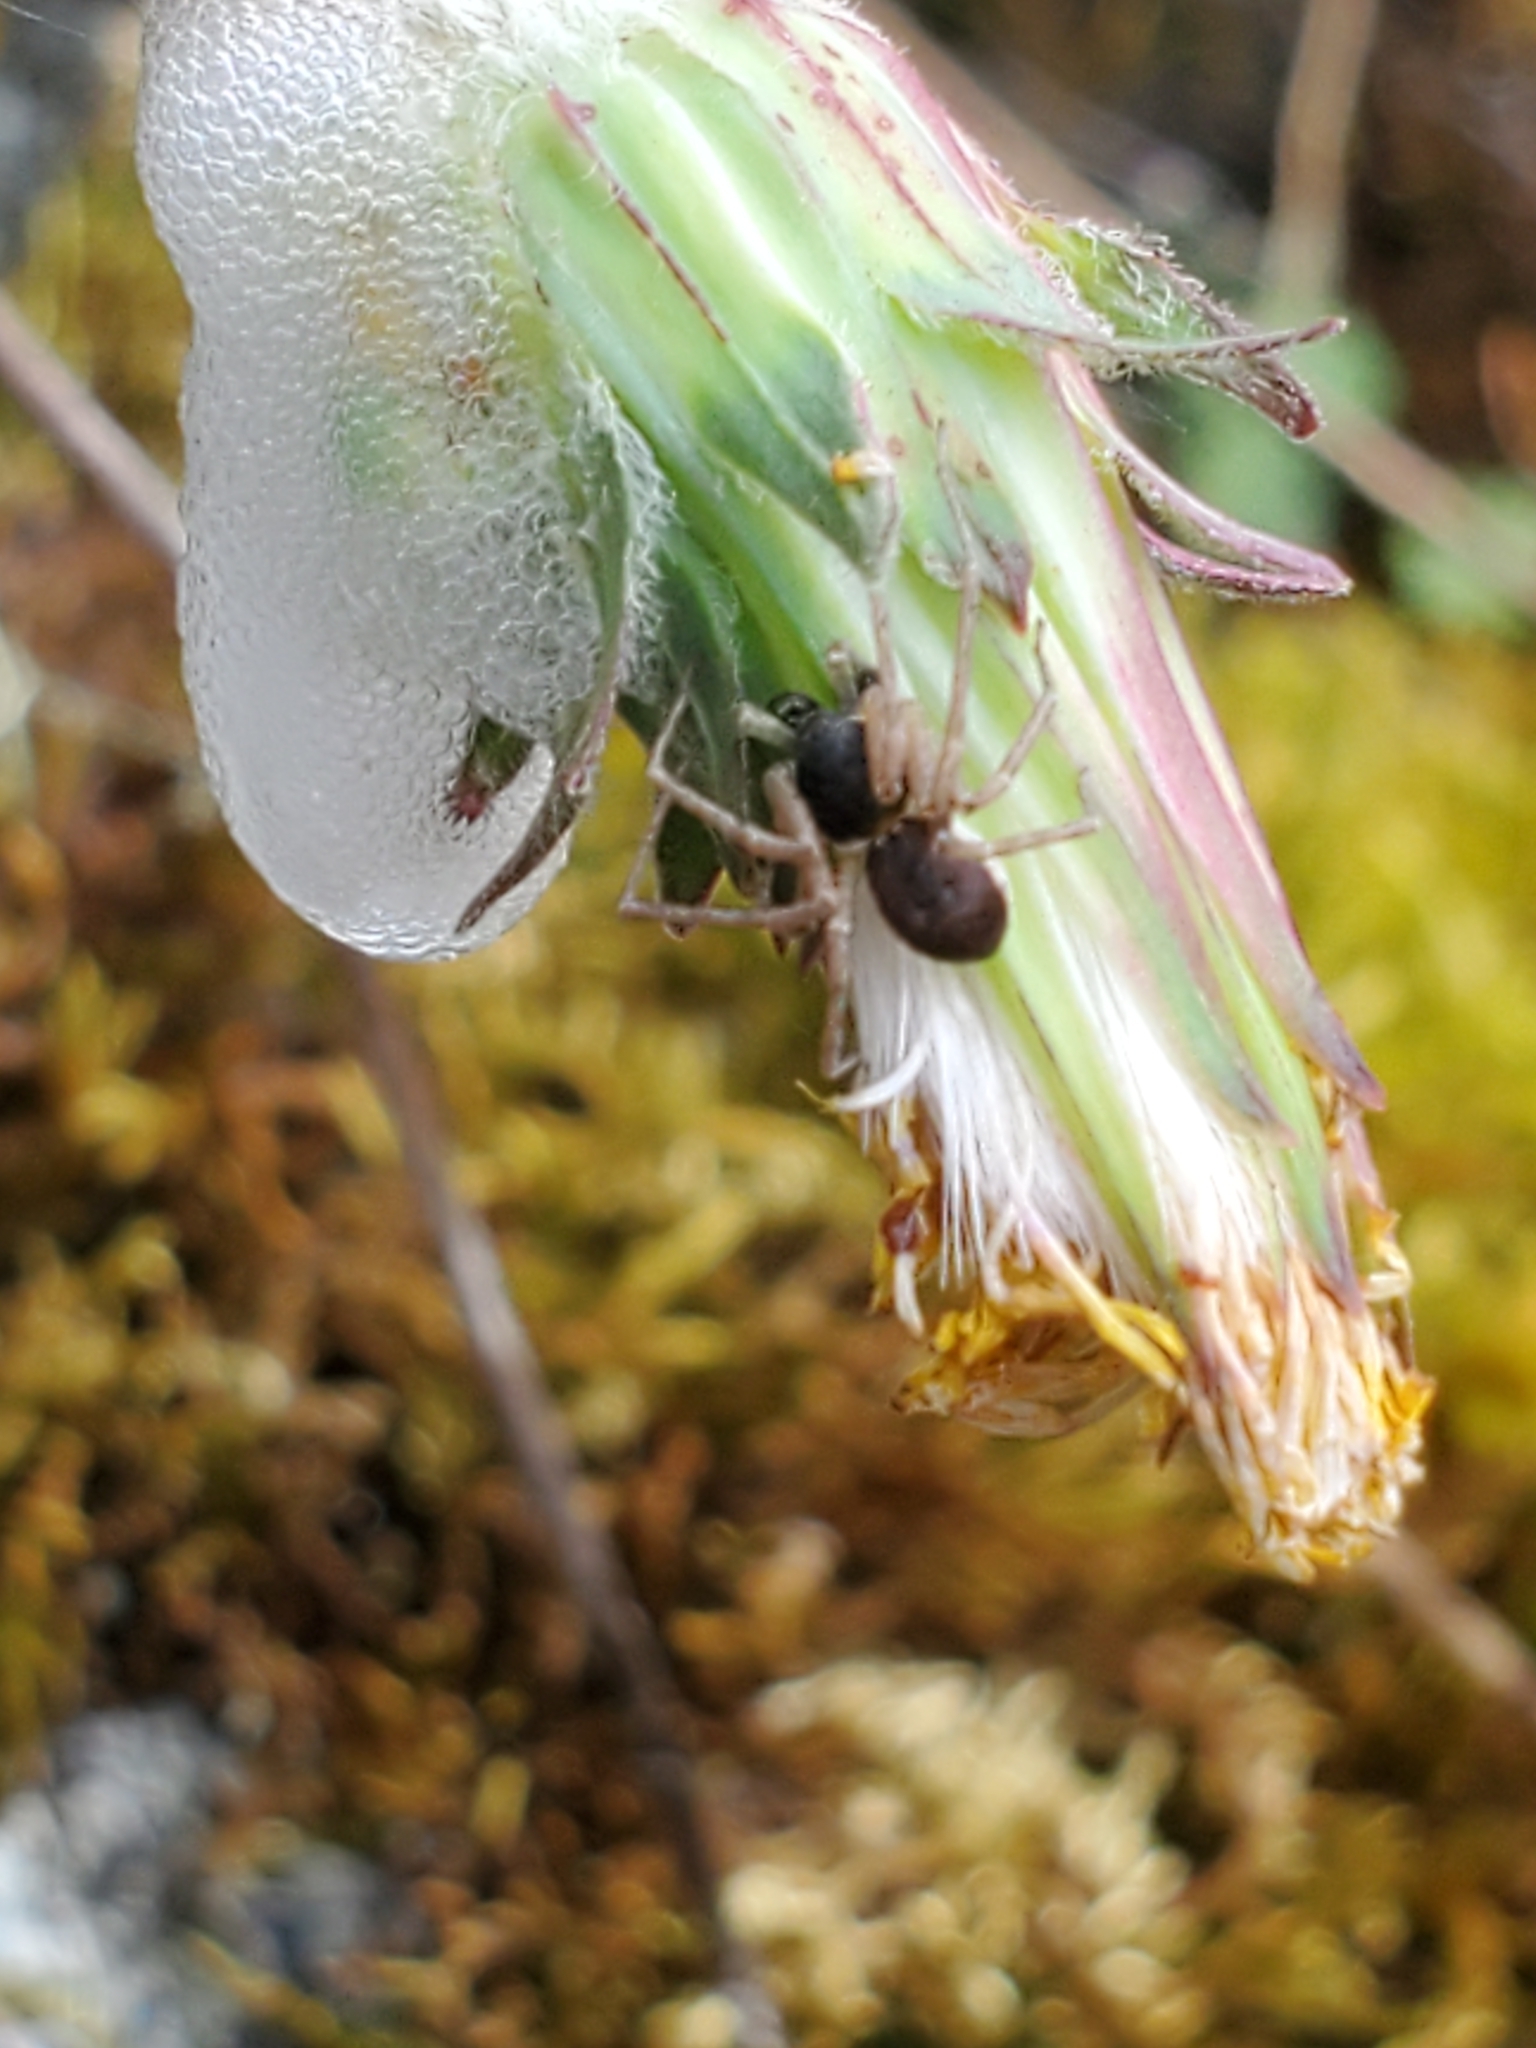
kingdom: Animalia
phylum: Arthropoda
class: Arachnida
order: Araneae
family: Philodromidae
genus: Philodromus
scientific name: Philodromus dispar
